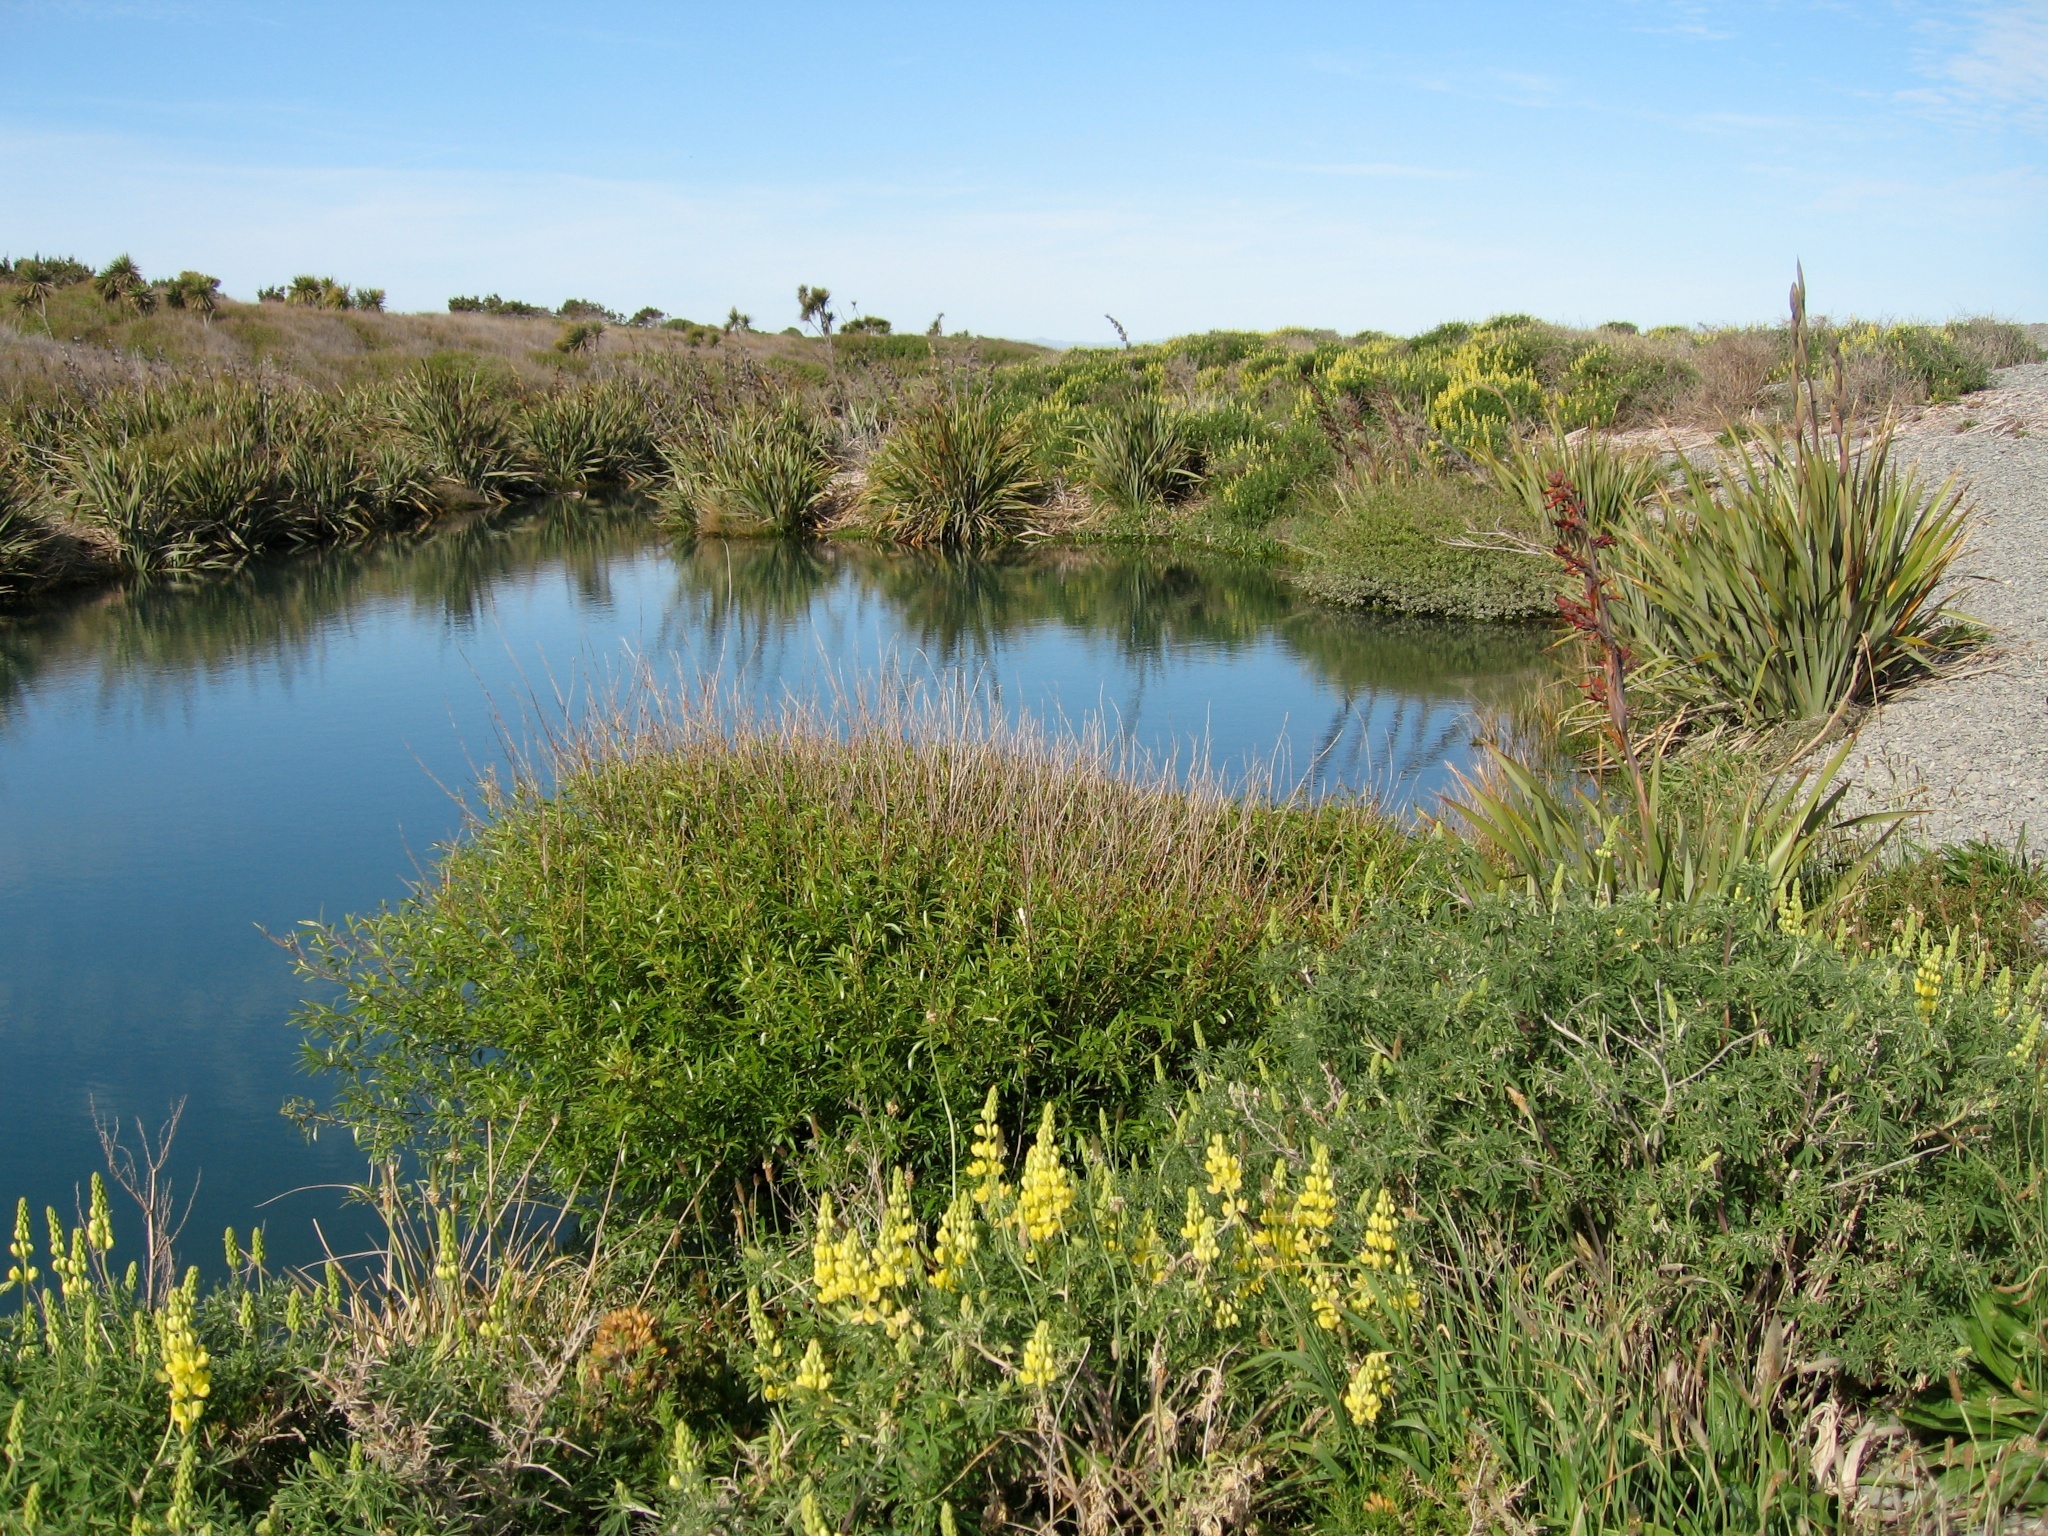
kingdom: Plantae
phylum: Tracheophyta
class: Magnoliopsida
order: Fabales
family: Fabaceae
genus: Lupinus
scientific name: Lupinus arboreus
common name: Yellow bush lupine
